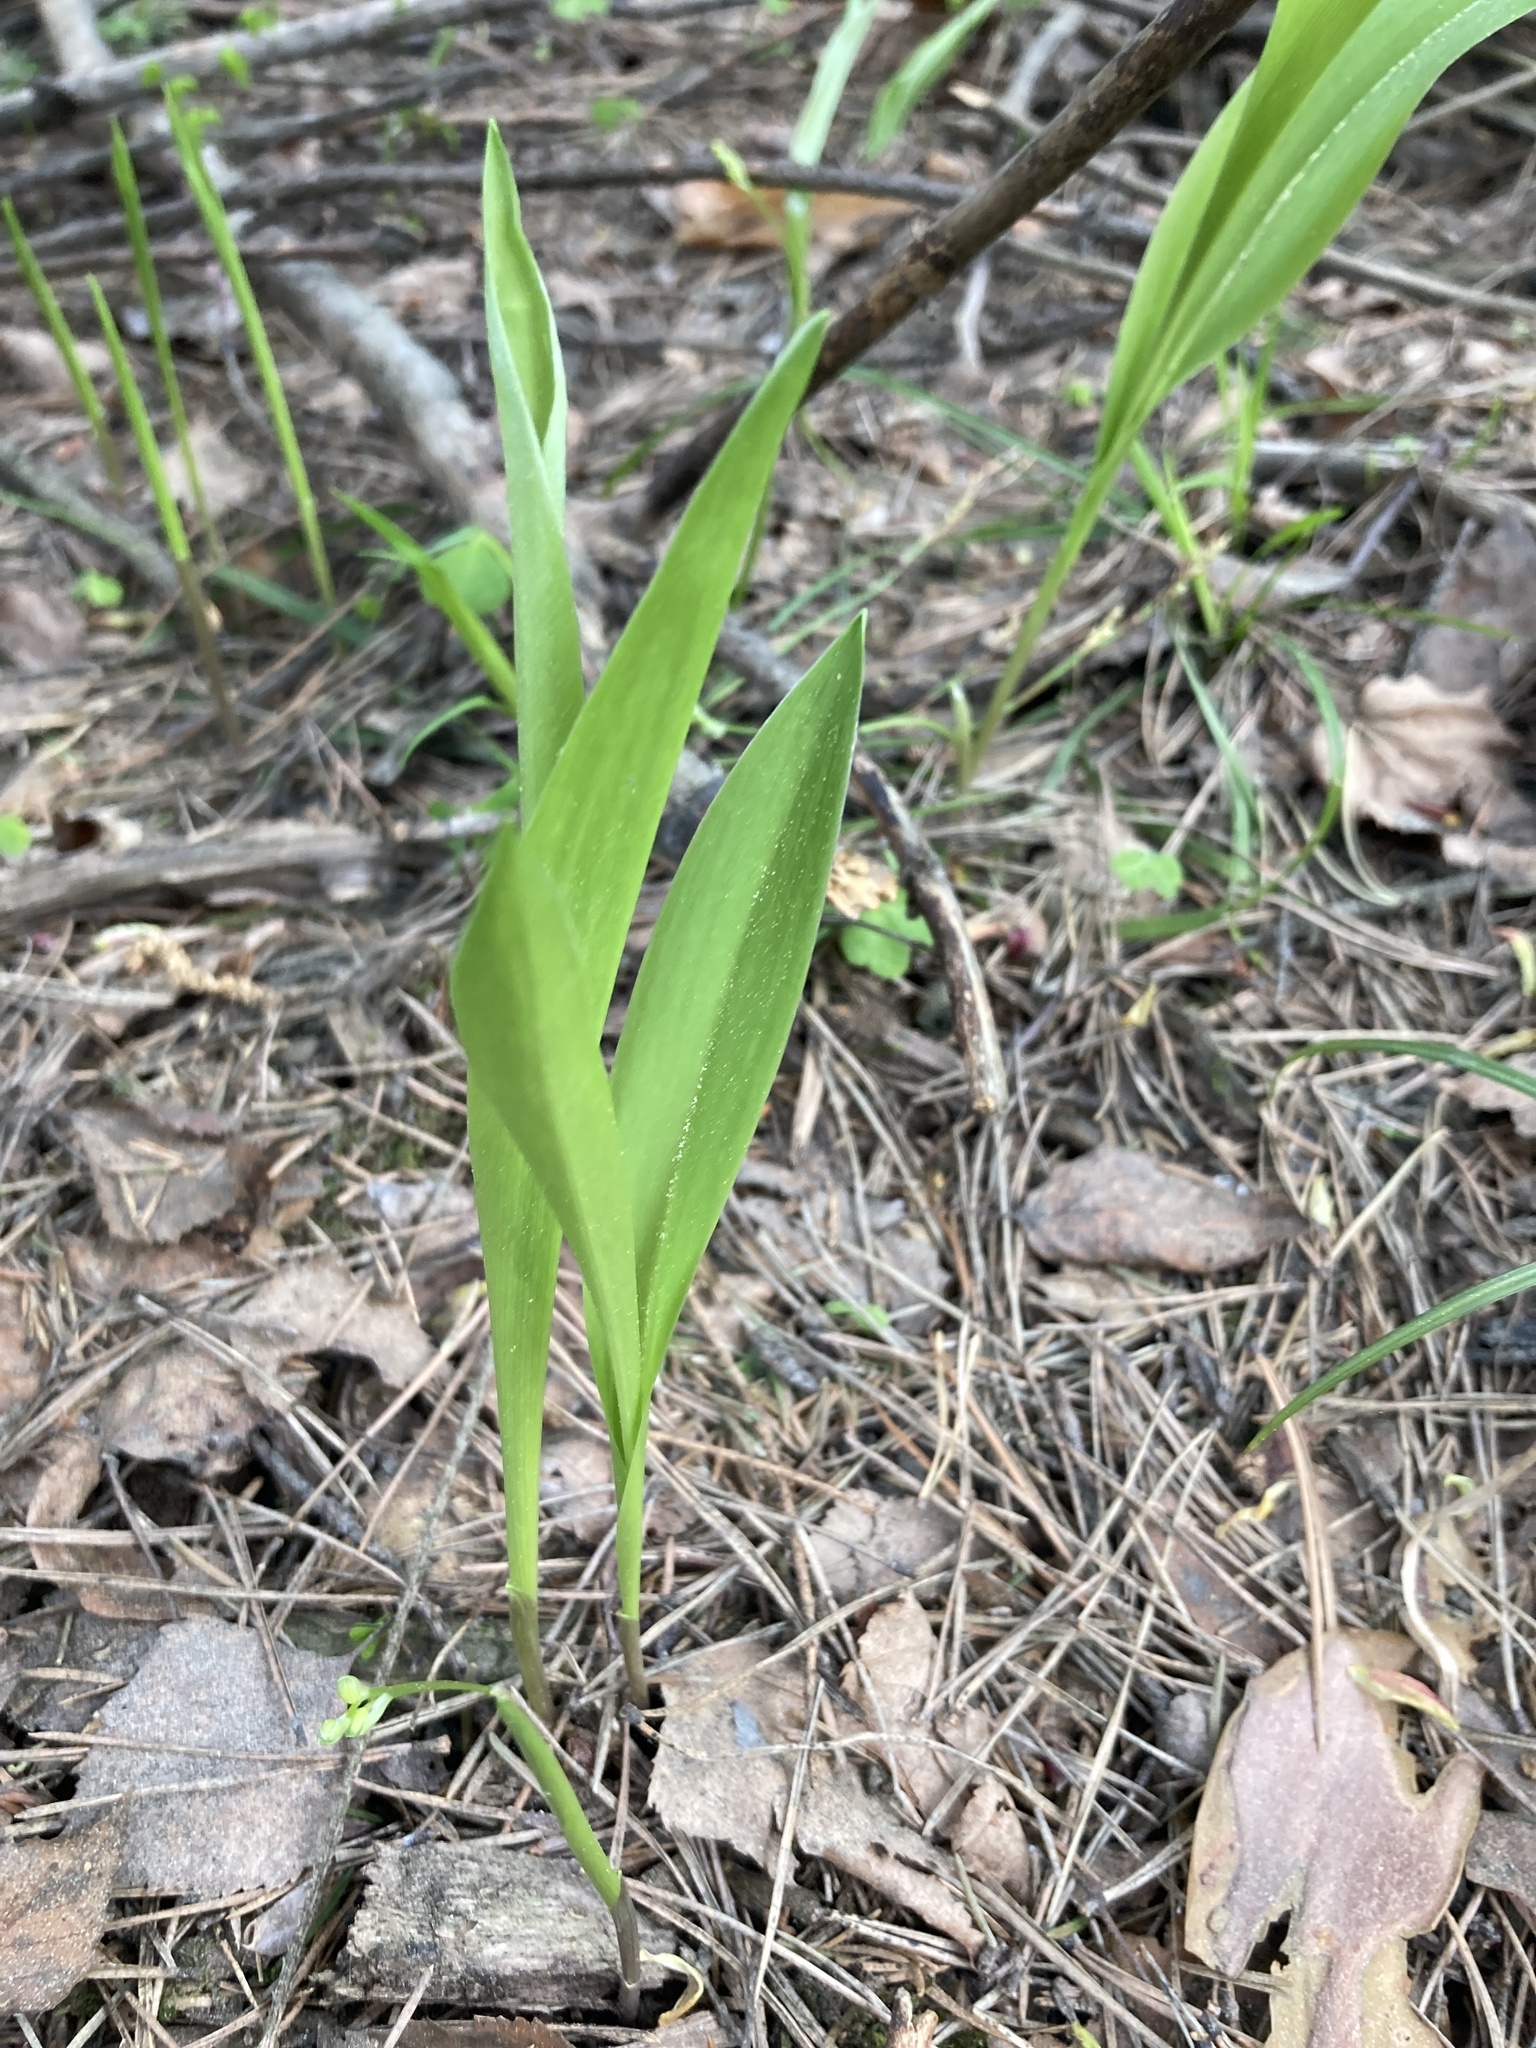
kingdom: Plantae
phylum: Tracheophyta
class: Liliopsida
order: Asparagales
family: Asparagaceae
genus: Convallaria
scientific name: Convallaria majalis
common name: Lily-of-the-valley
